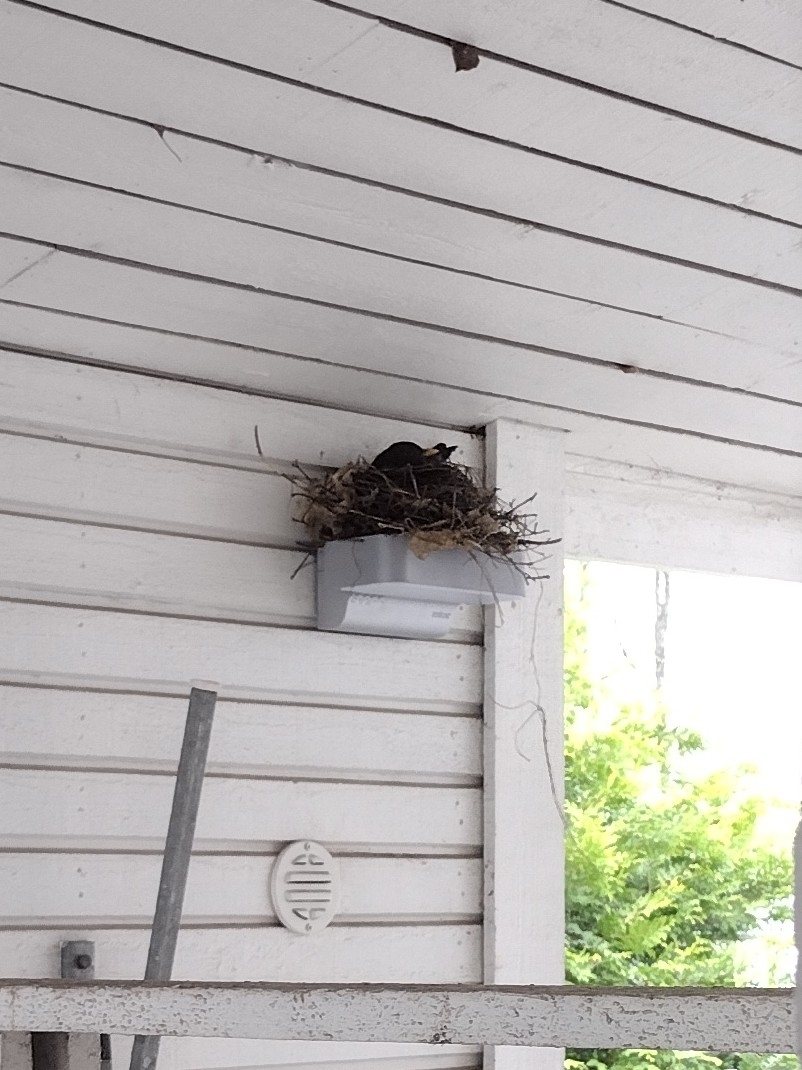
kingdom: Animalia
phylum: Chordata
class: Aves
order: Passeriformes
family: Turdidae
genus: Turdus
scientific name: Turdus merula
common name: Common blackbird
